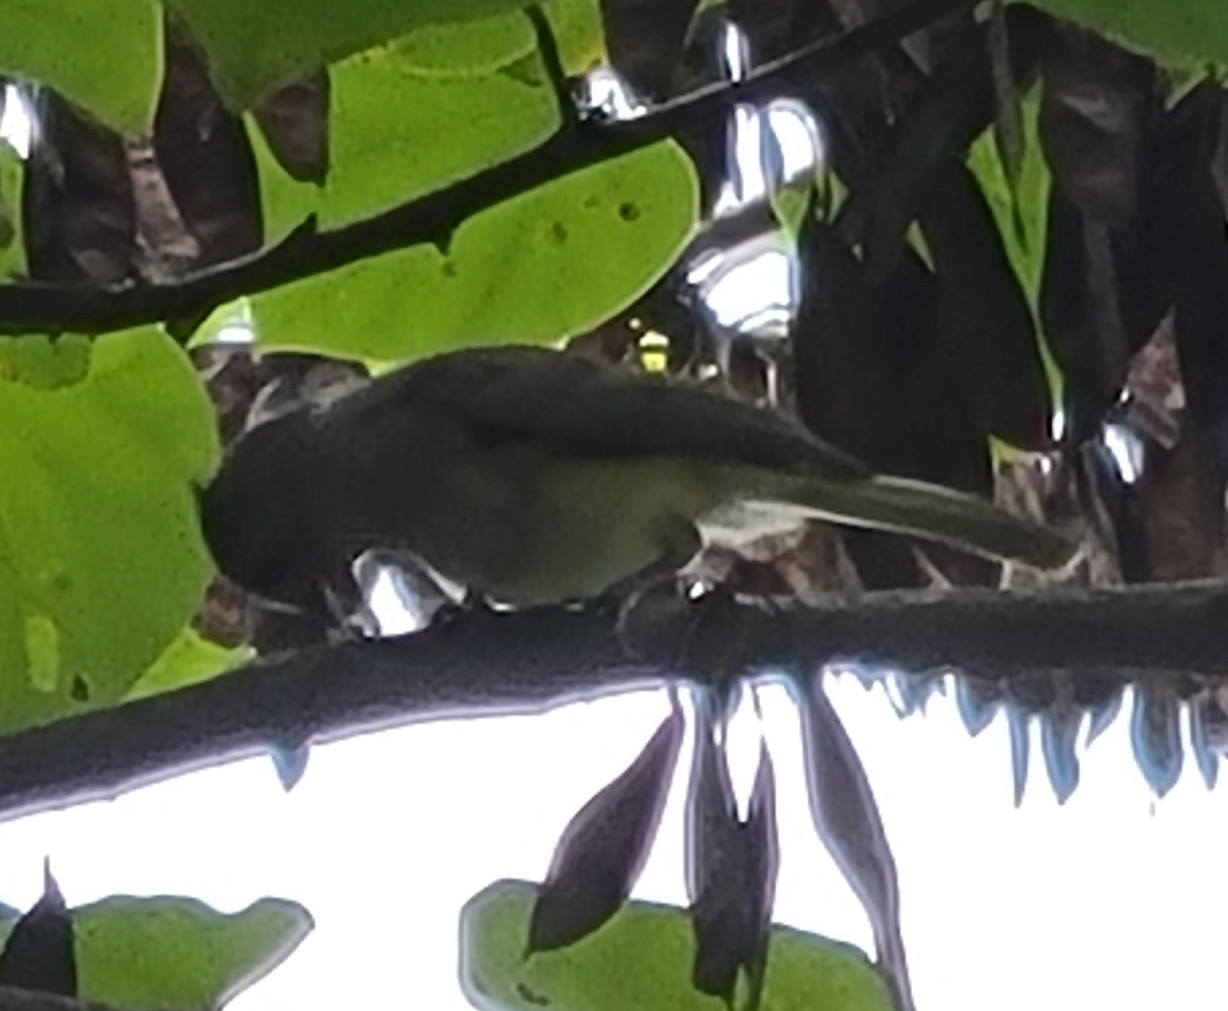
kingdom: Animalia
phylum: Chordata
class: Aves
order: Passeriformes
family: Paridae
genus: Baeolophus
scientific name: Baeolophus bicolor
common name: Tufted titmouse
